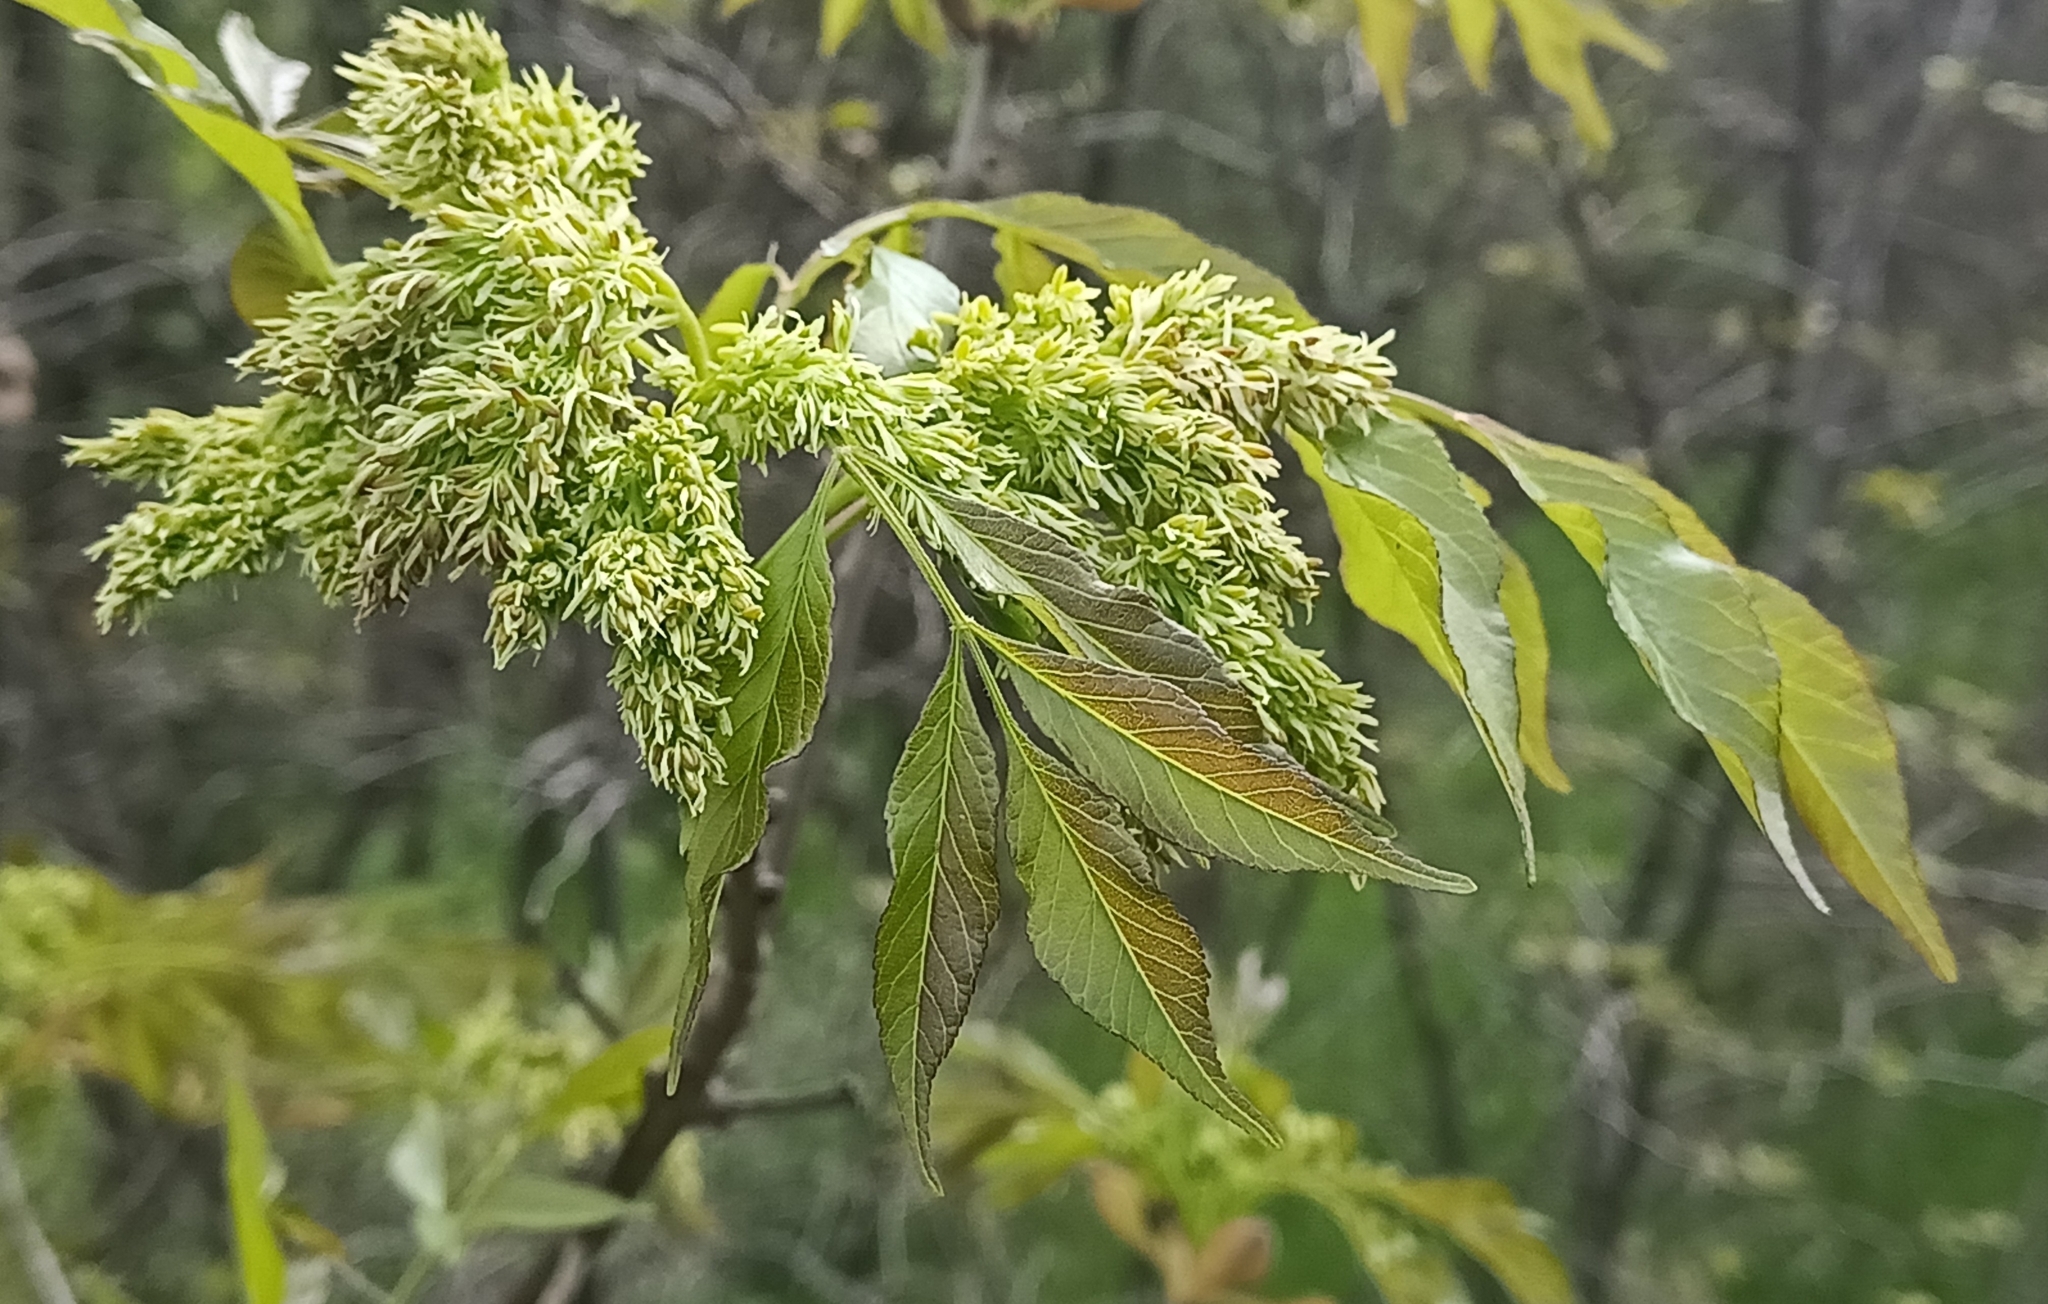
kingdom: Plantae
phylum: Tracheophyta
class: Magnoliopsida
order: Lamiales
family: Oleaceae
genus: Fraxinus
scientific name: Fraxinus ornus
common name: Manna ash
